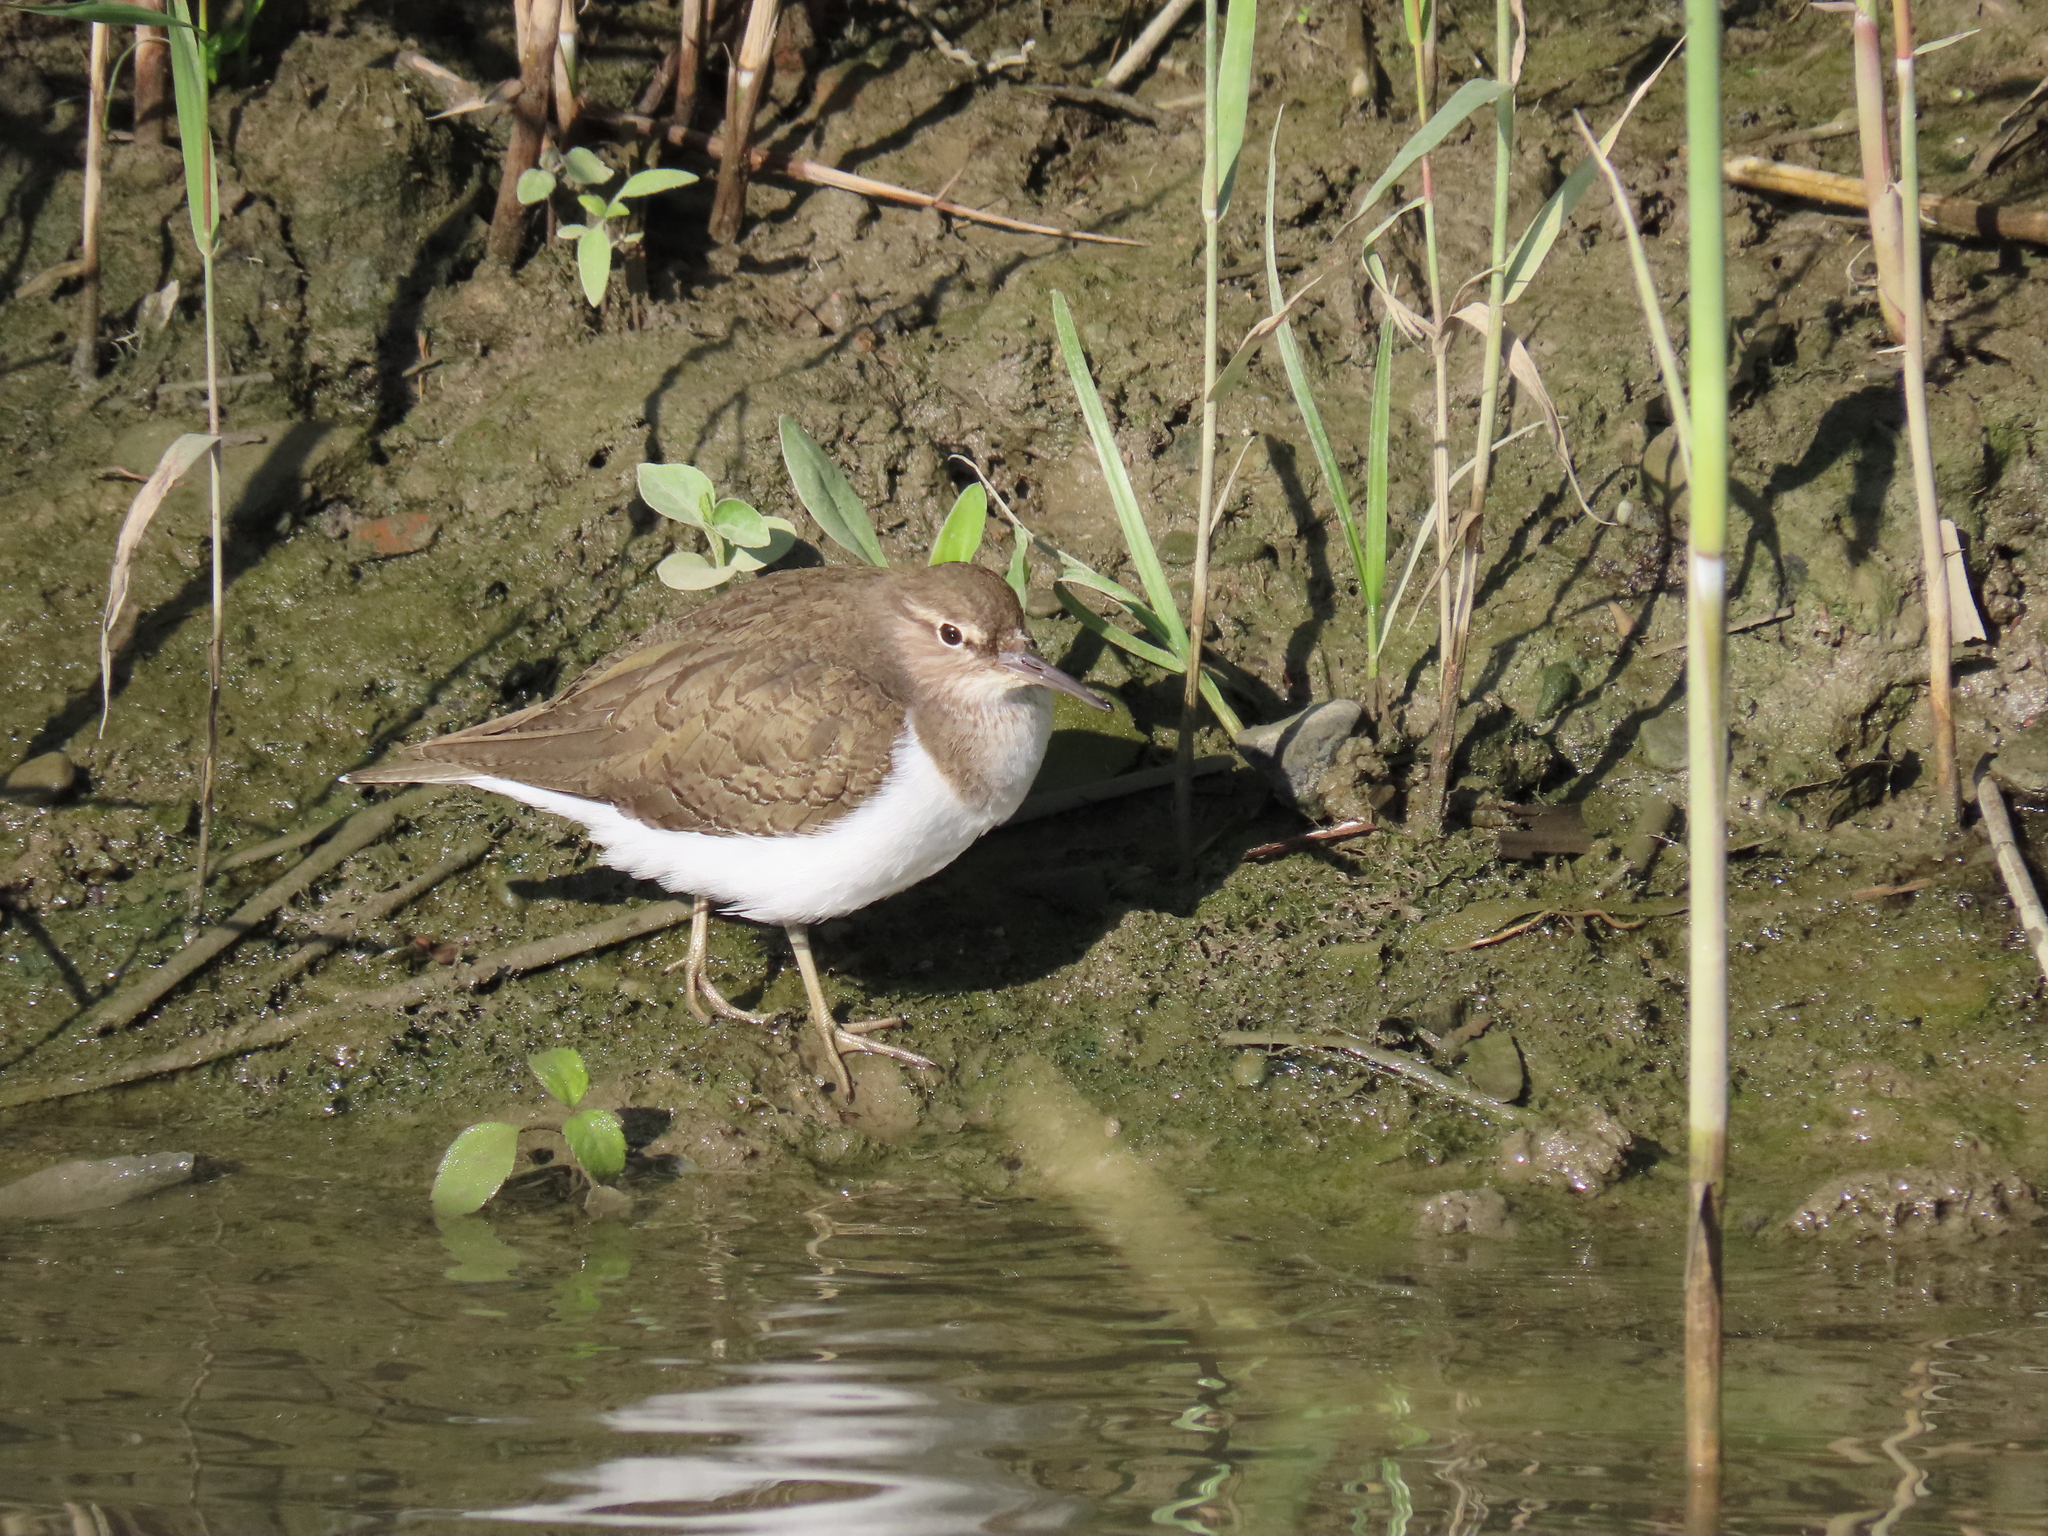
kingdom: Animalia
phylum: Chordata
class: Aves
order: Charadriiformes
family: Scolopacidae
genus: Actitis
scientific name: Actitis hypoleucos
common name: Common sandpiper
